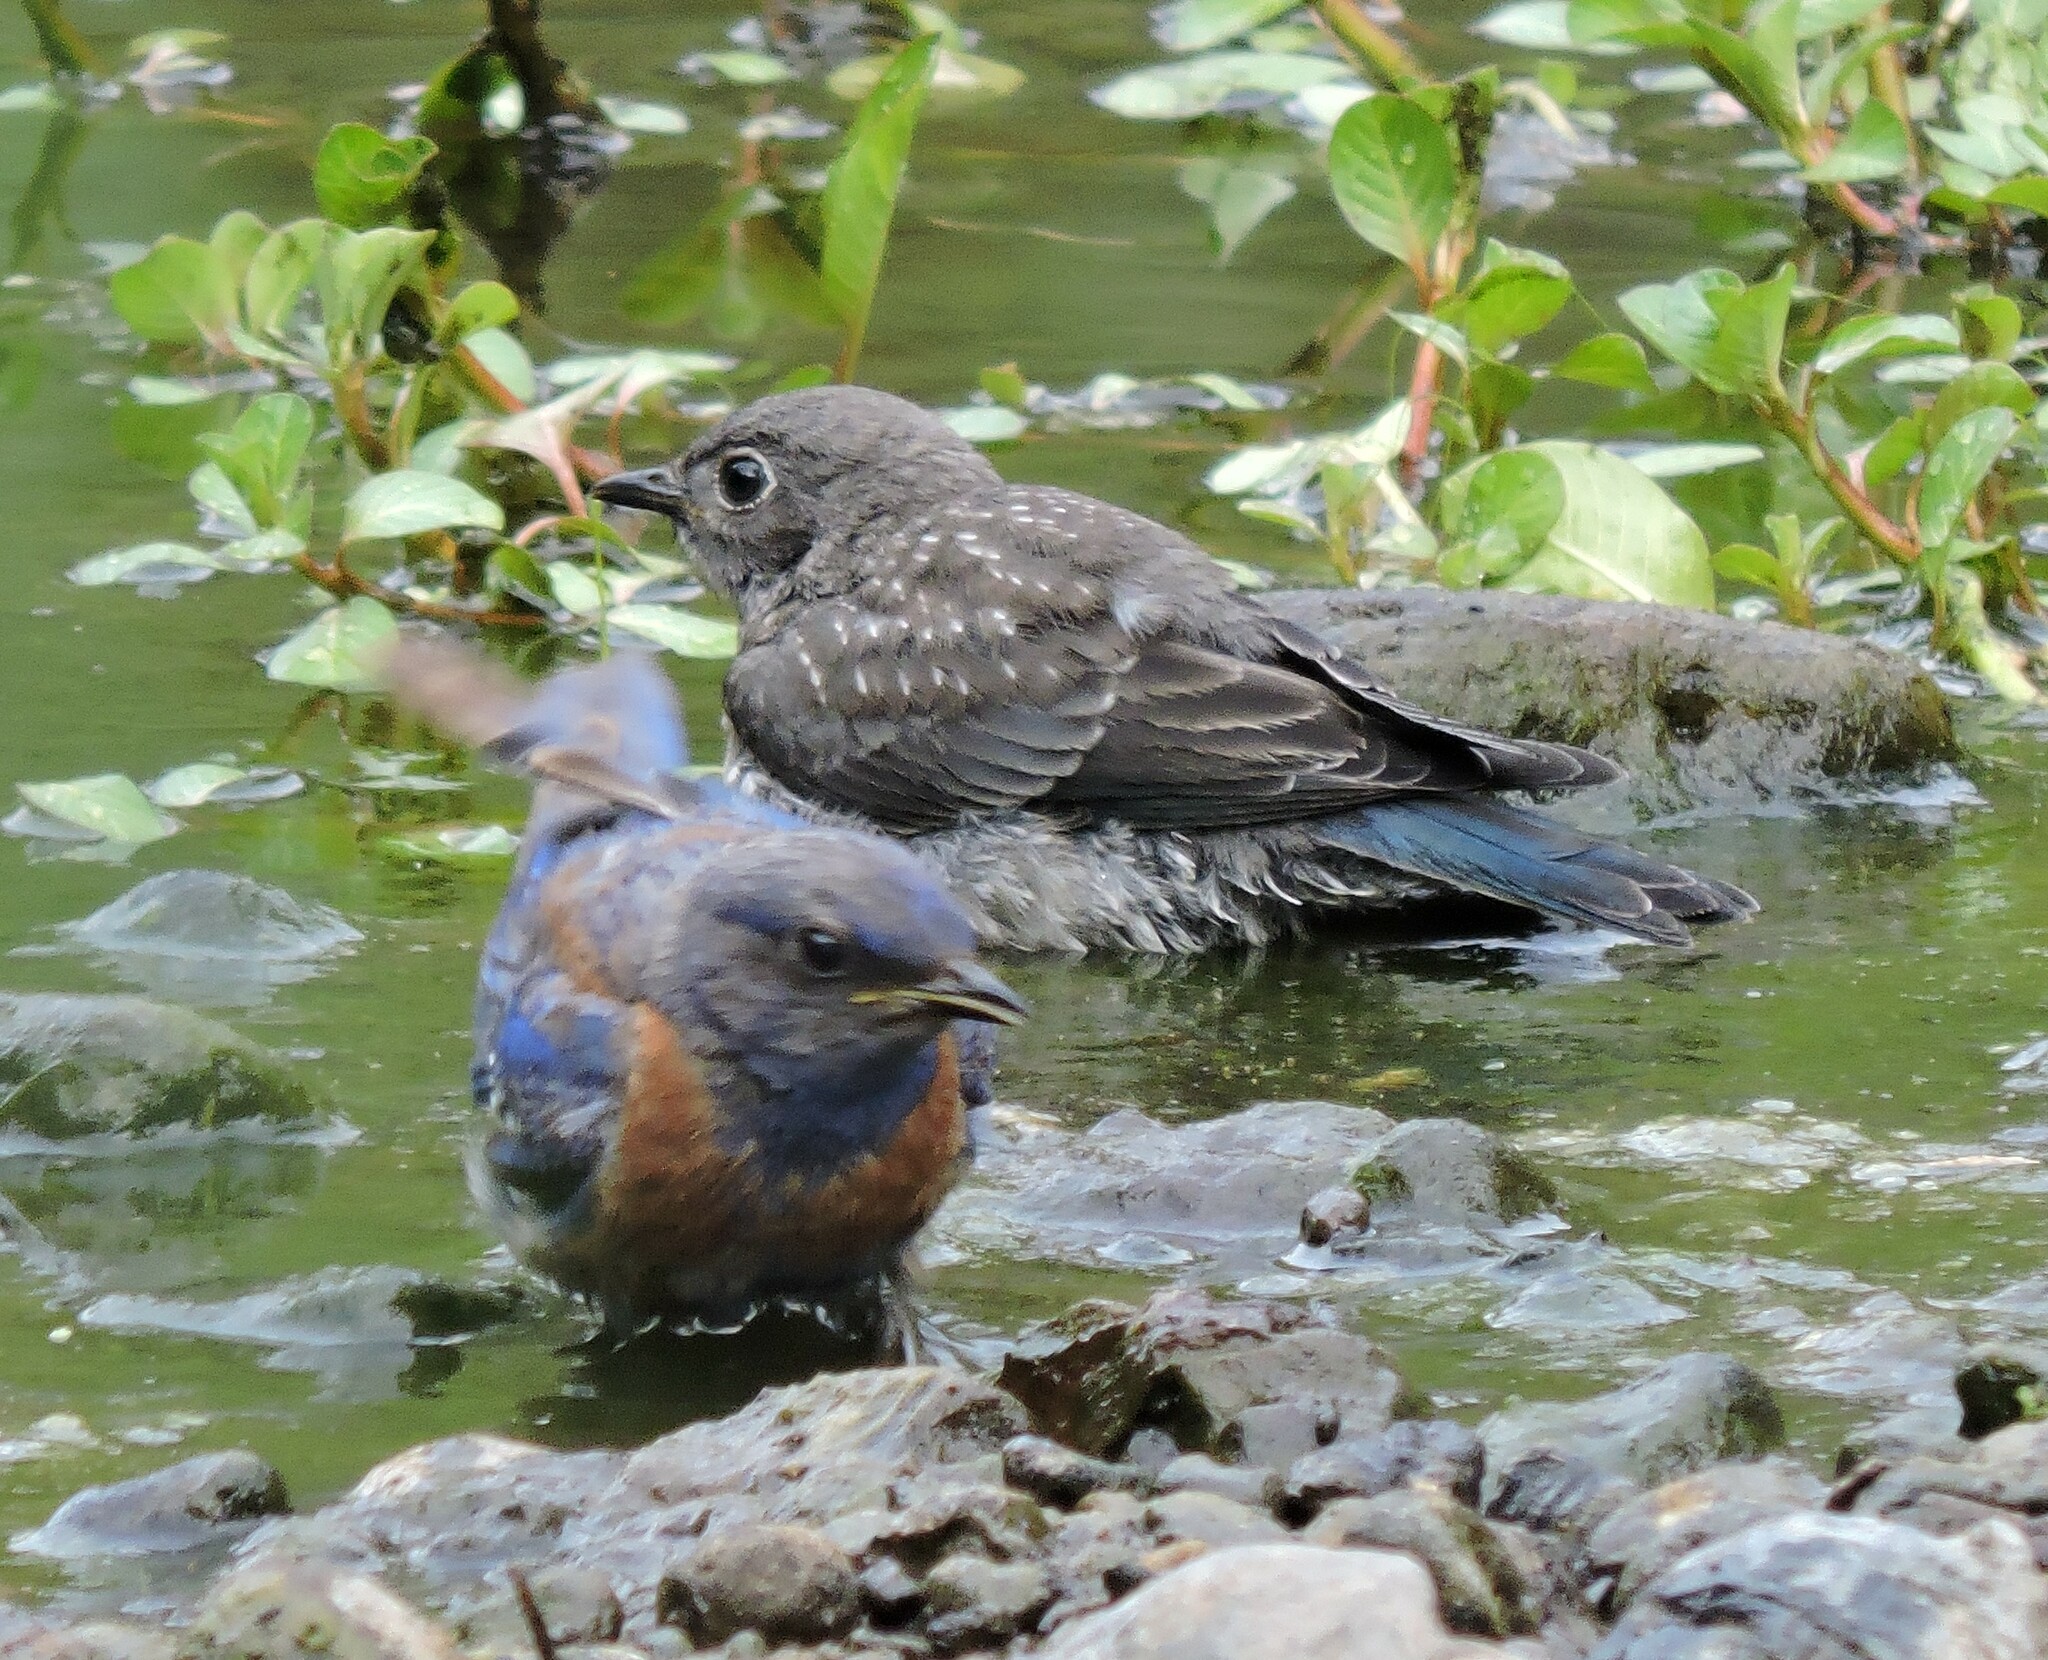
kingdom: Animalia
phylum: Chordata
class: Aves
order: Passeriformes
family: Turdidae
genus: Sialia
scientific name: Sialia mexicana
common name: Western bluebird
